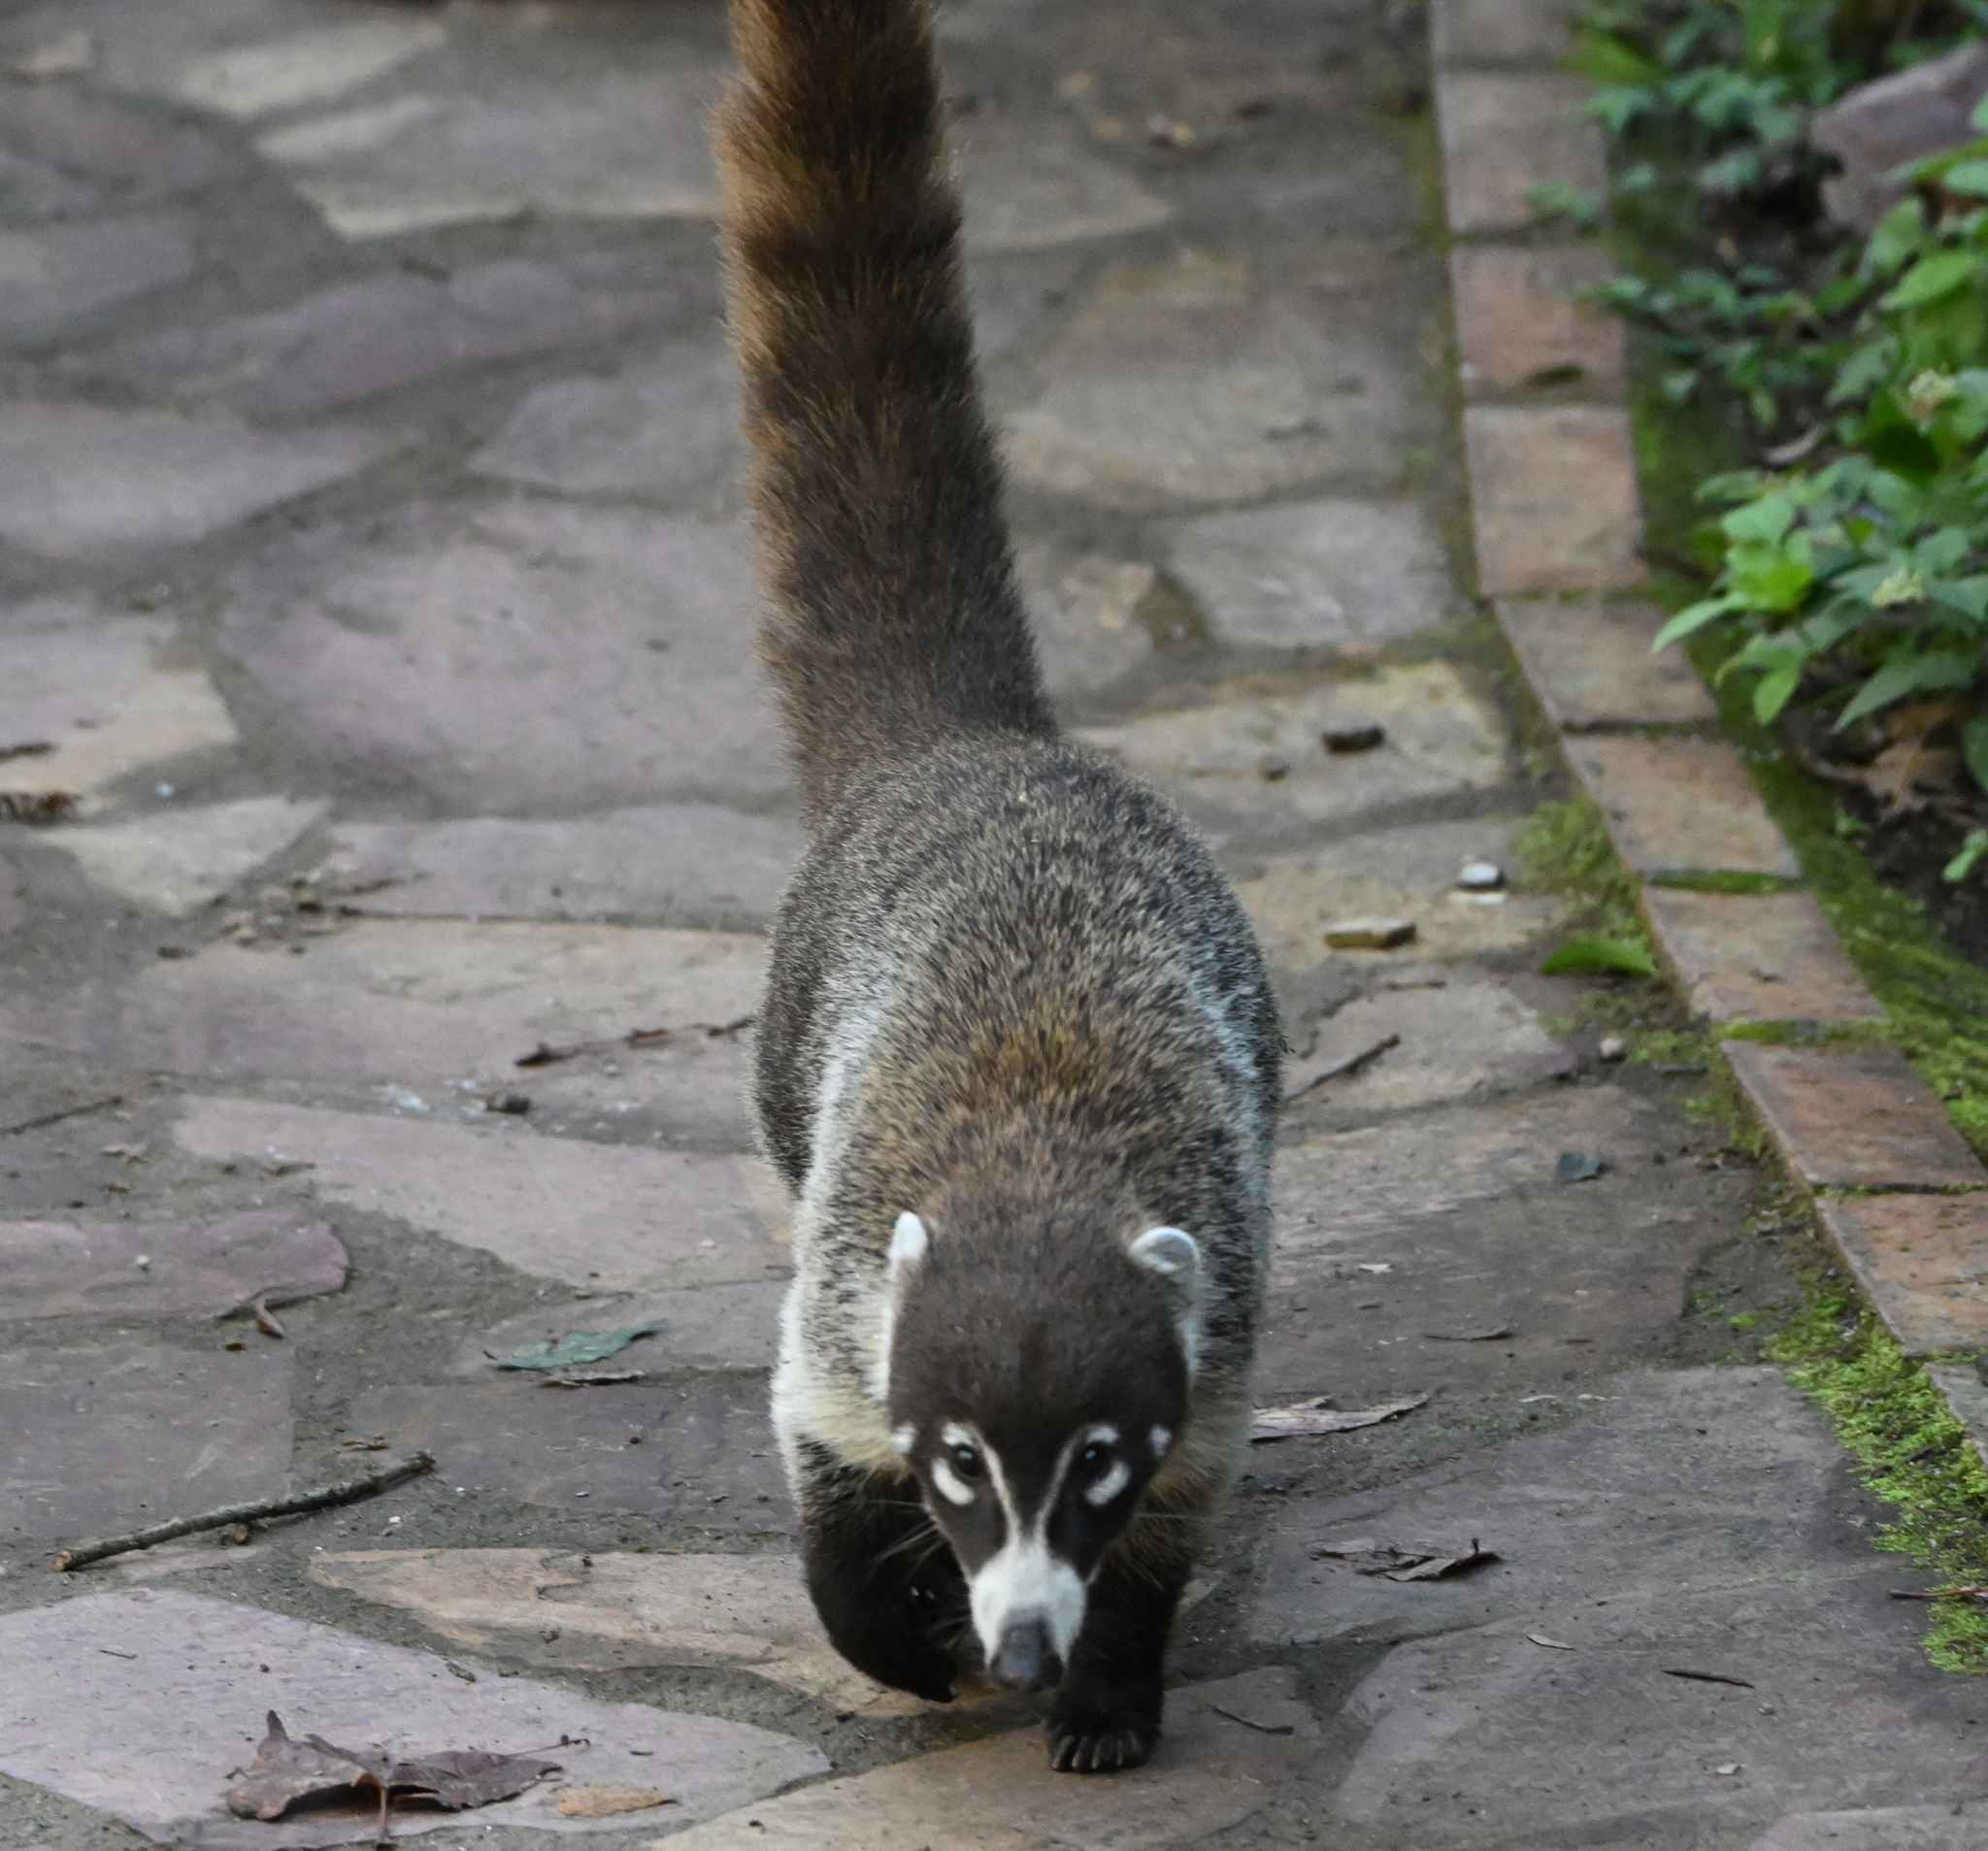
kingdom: Animalia
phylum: Chordata
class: Mammalia
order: Carnivora
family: Procyonidae
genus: Nasua
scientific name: Nasua narica
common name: White-nosed coati
